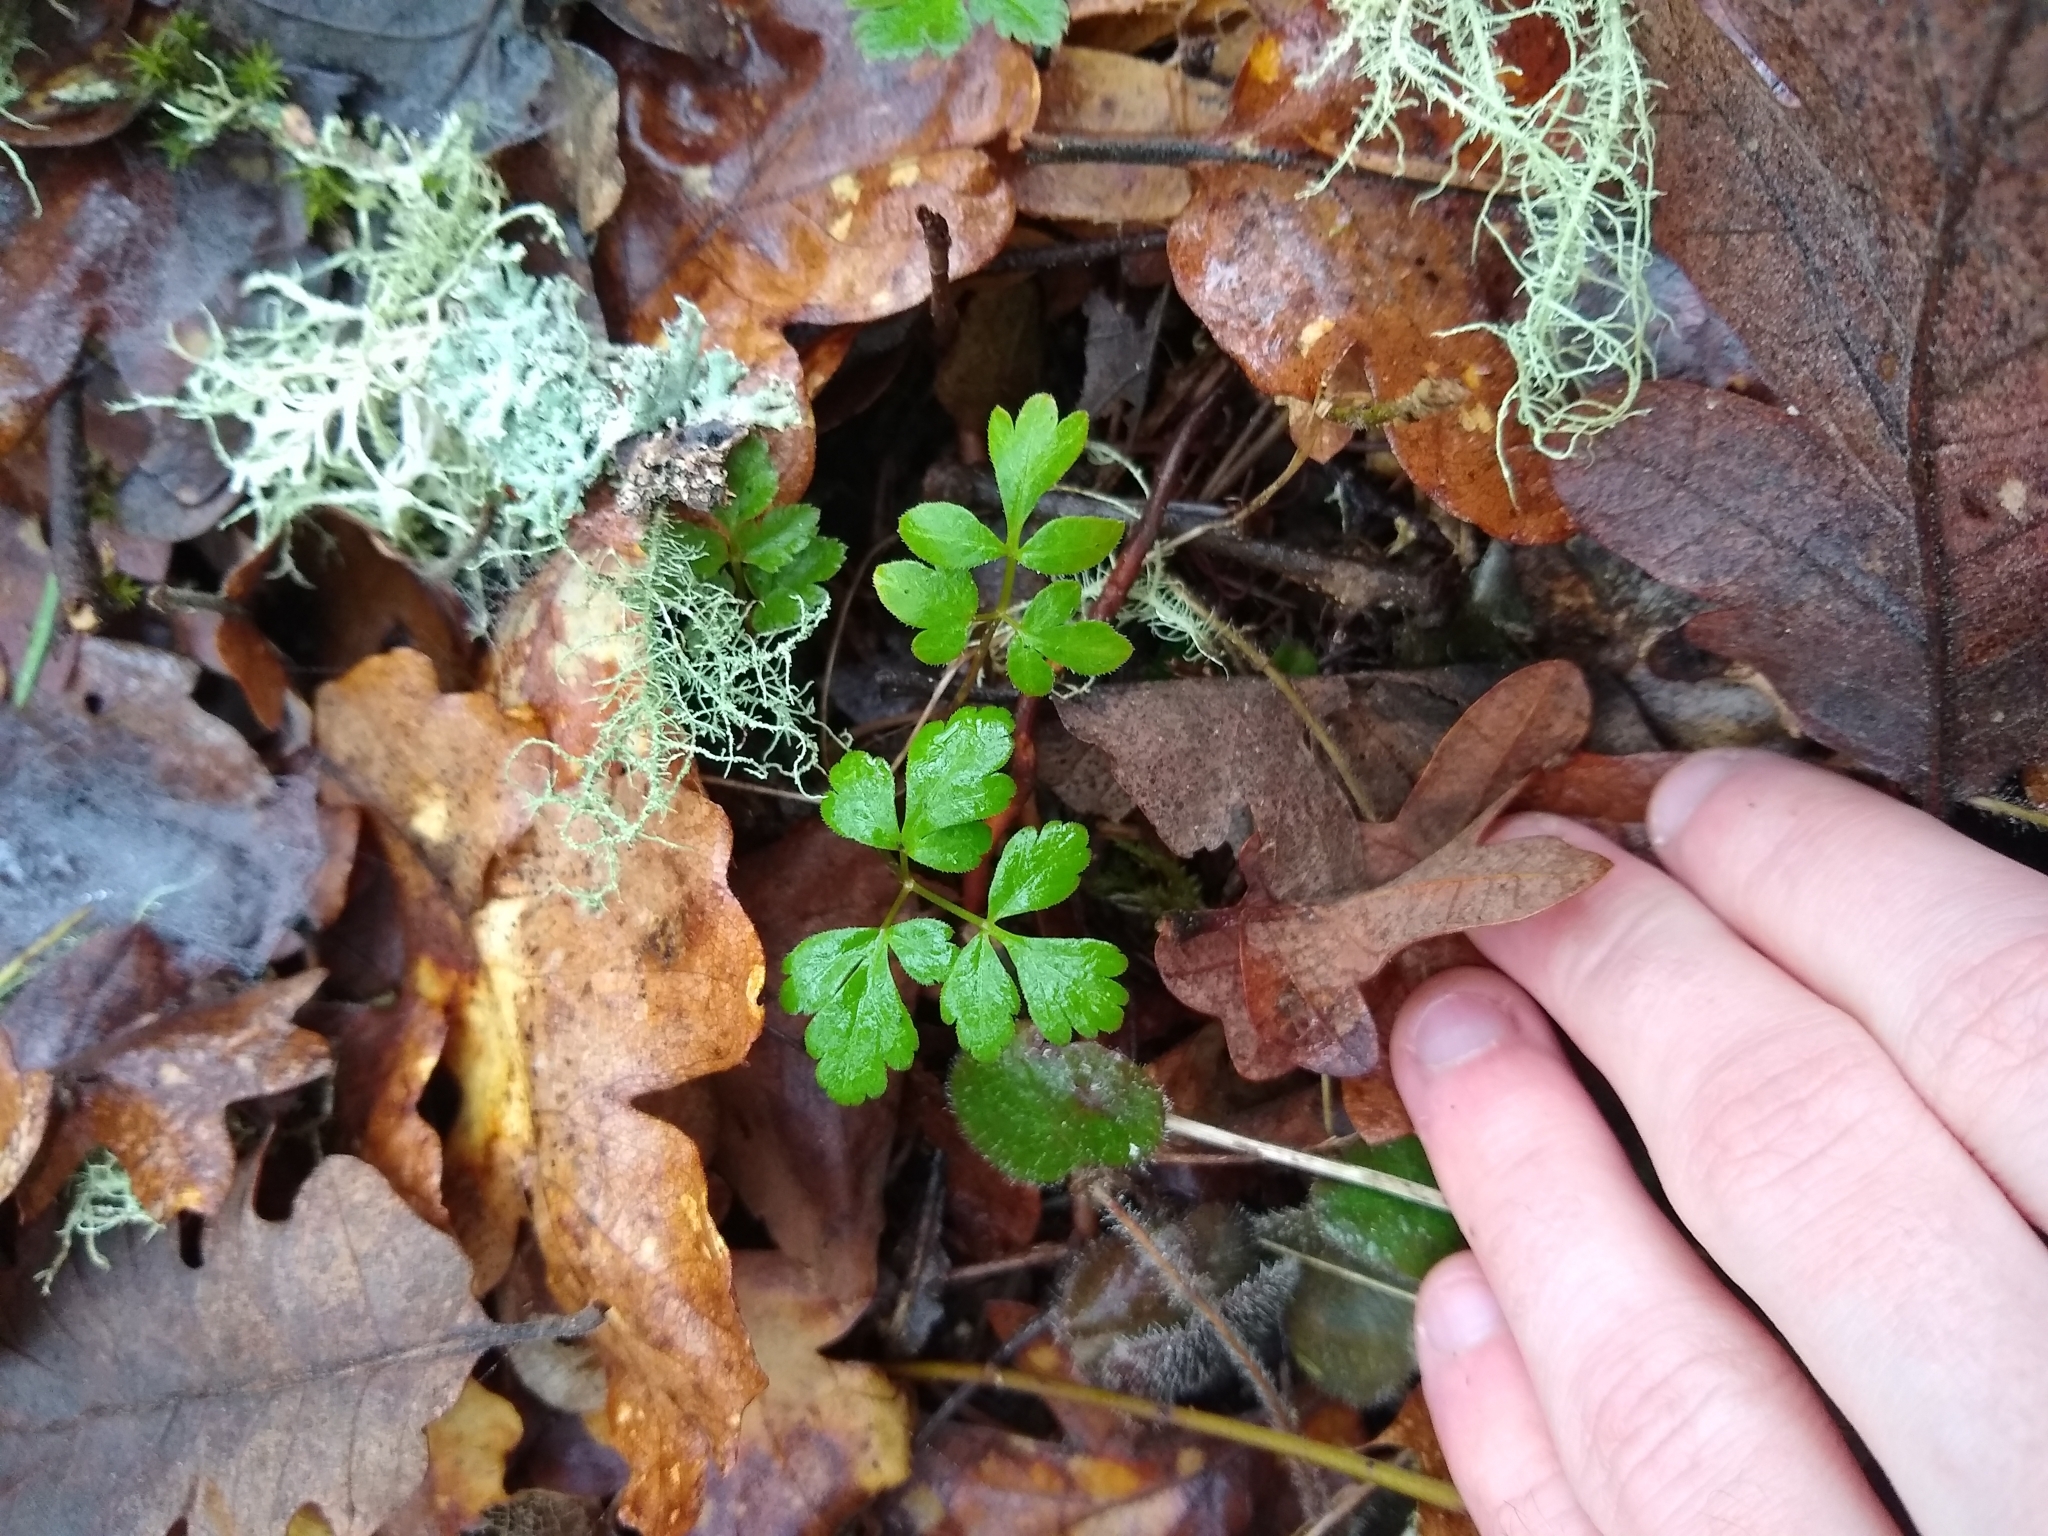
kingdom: Plantae
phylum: Tracheophyta
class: Magnoliopsida
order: Geraniales
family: Geraniaceae
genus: Geranium
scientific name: Geranium robertianum
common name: Herb-robert
